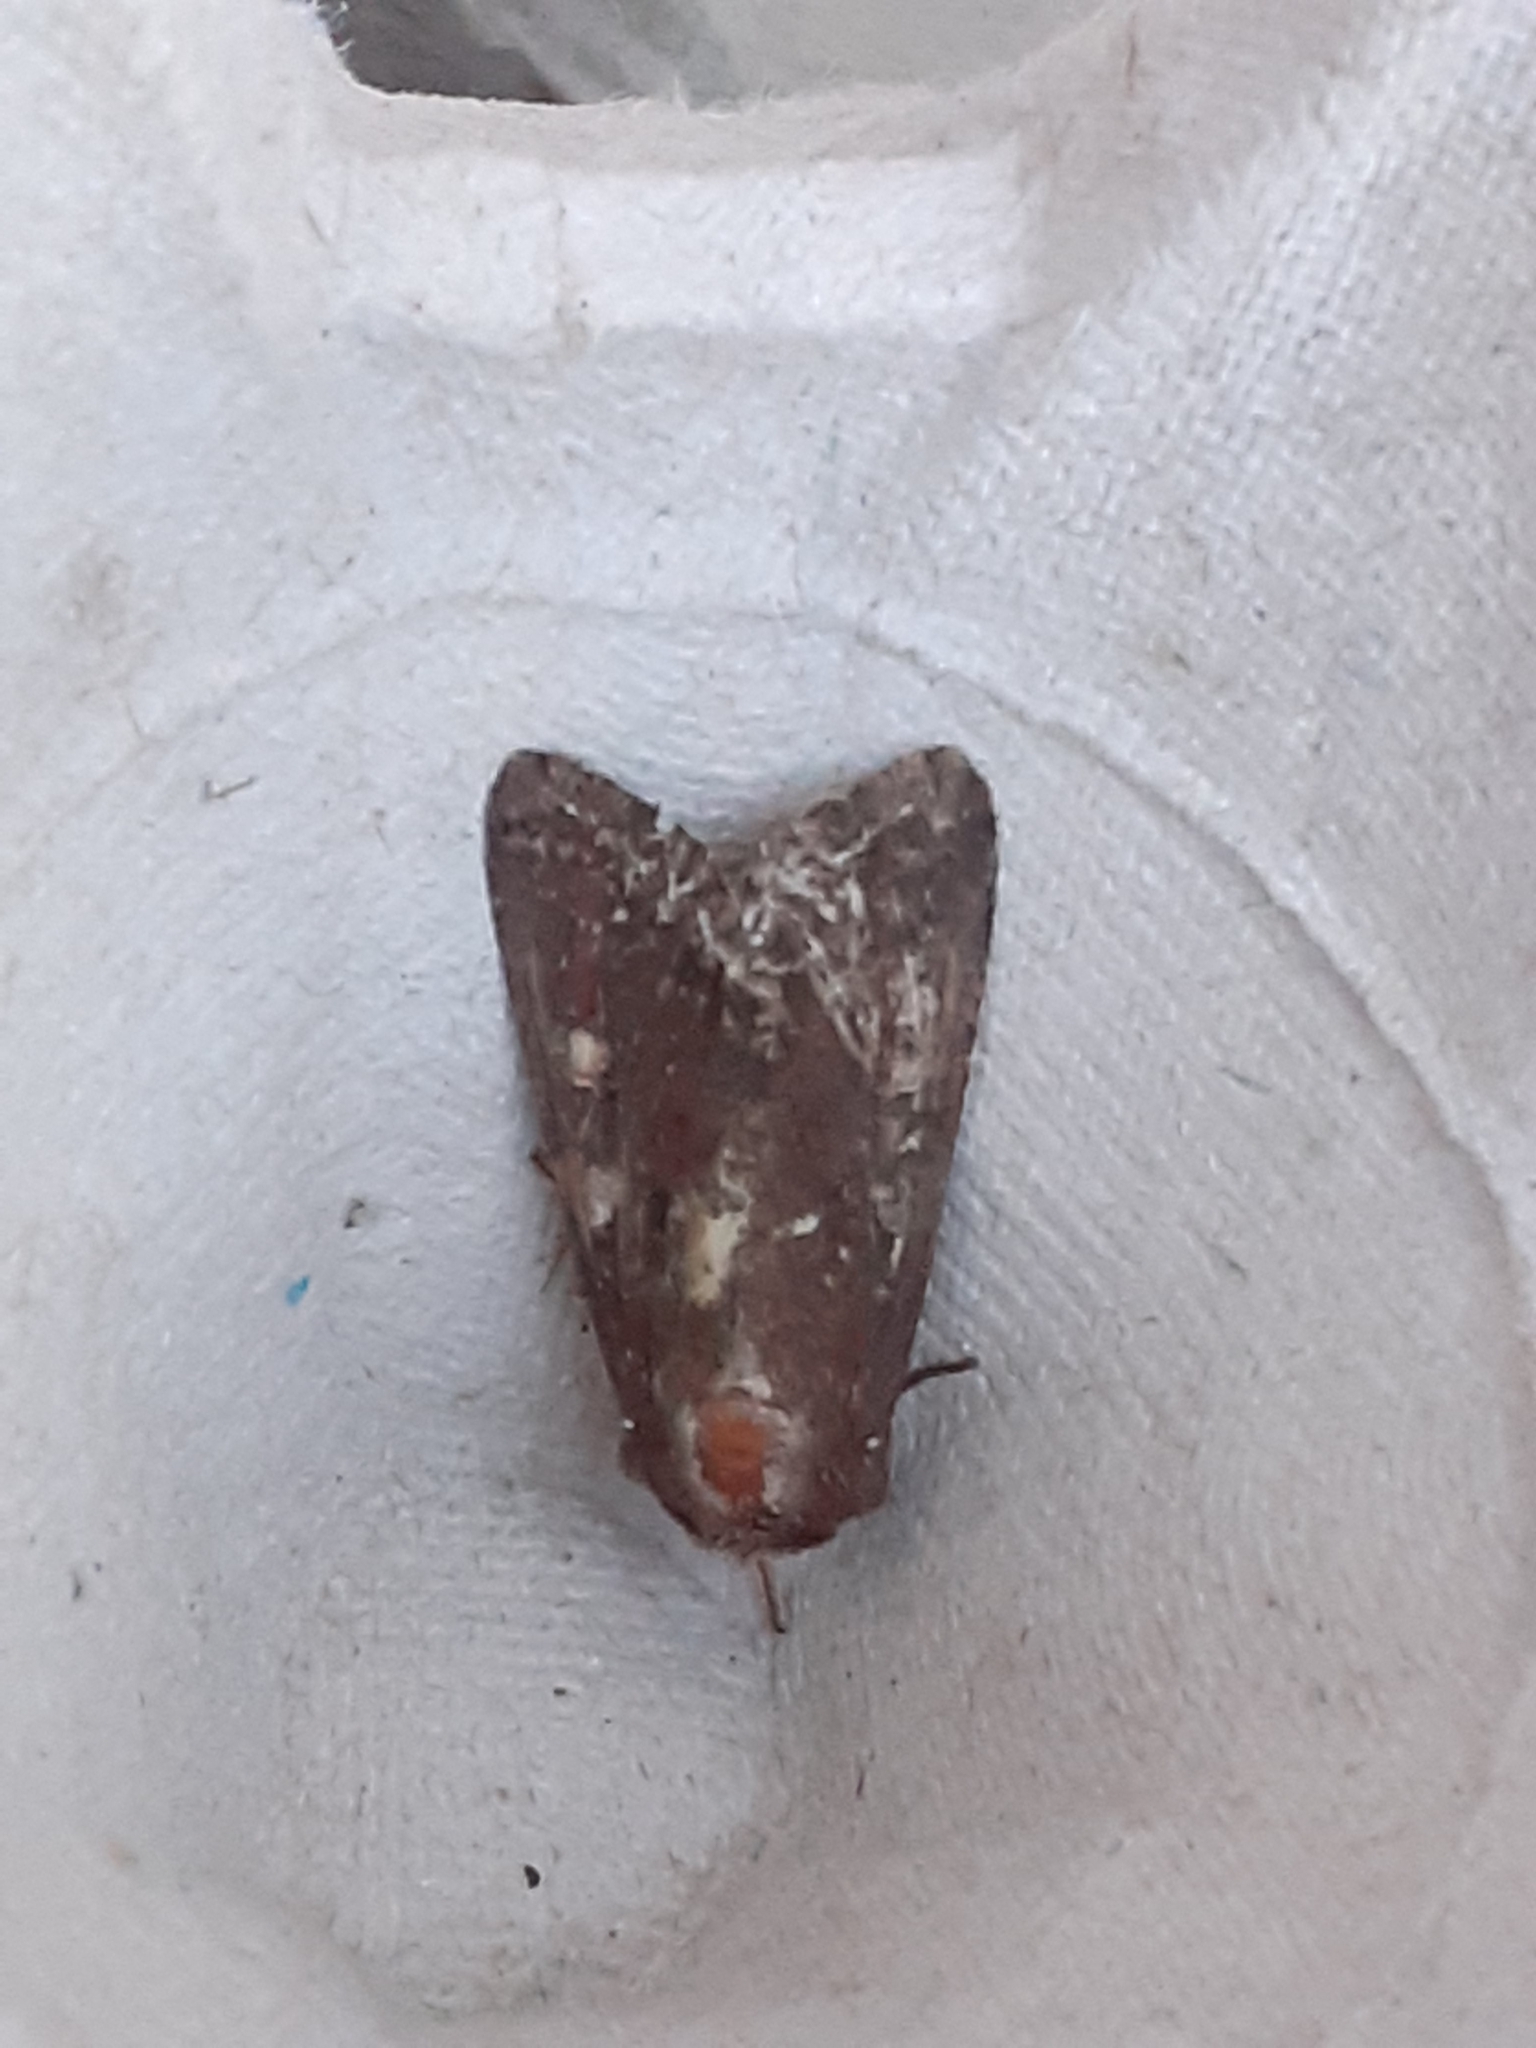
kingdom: Animalia
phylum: Arthropoda
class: Insecta
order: Lepidoptera
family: Noctuidae
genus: Lacanobia
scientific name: Lacanobia oleracea
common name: Bright-line brown-eye
